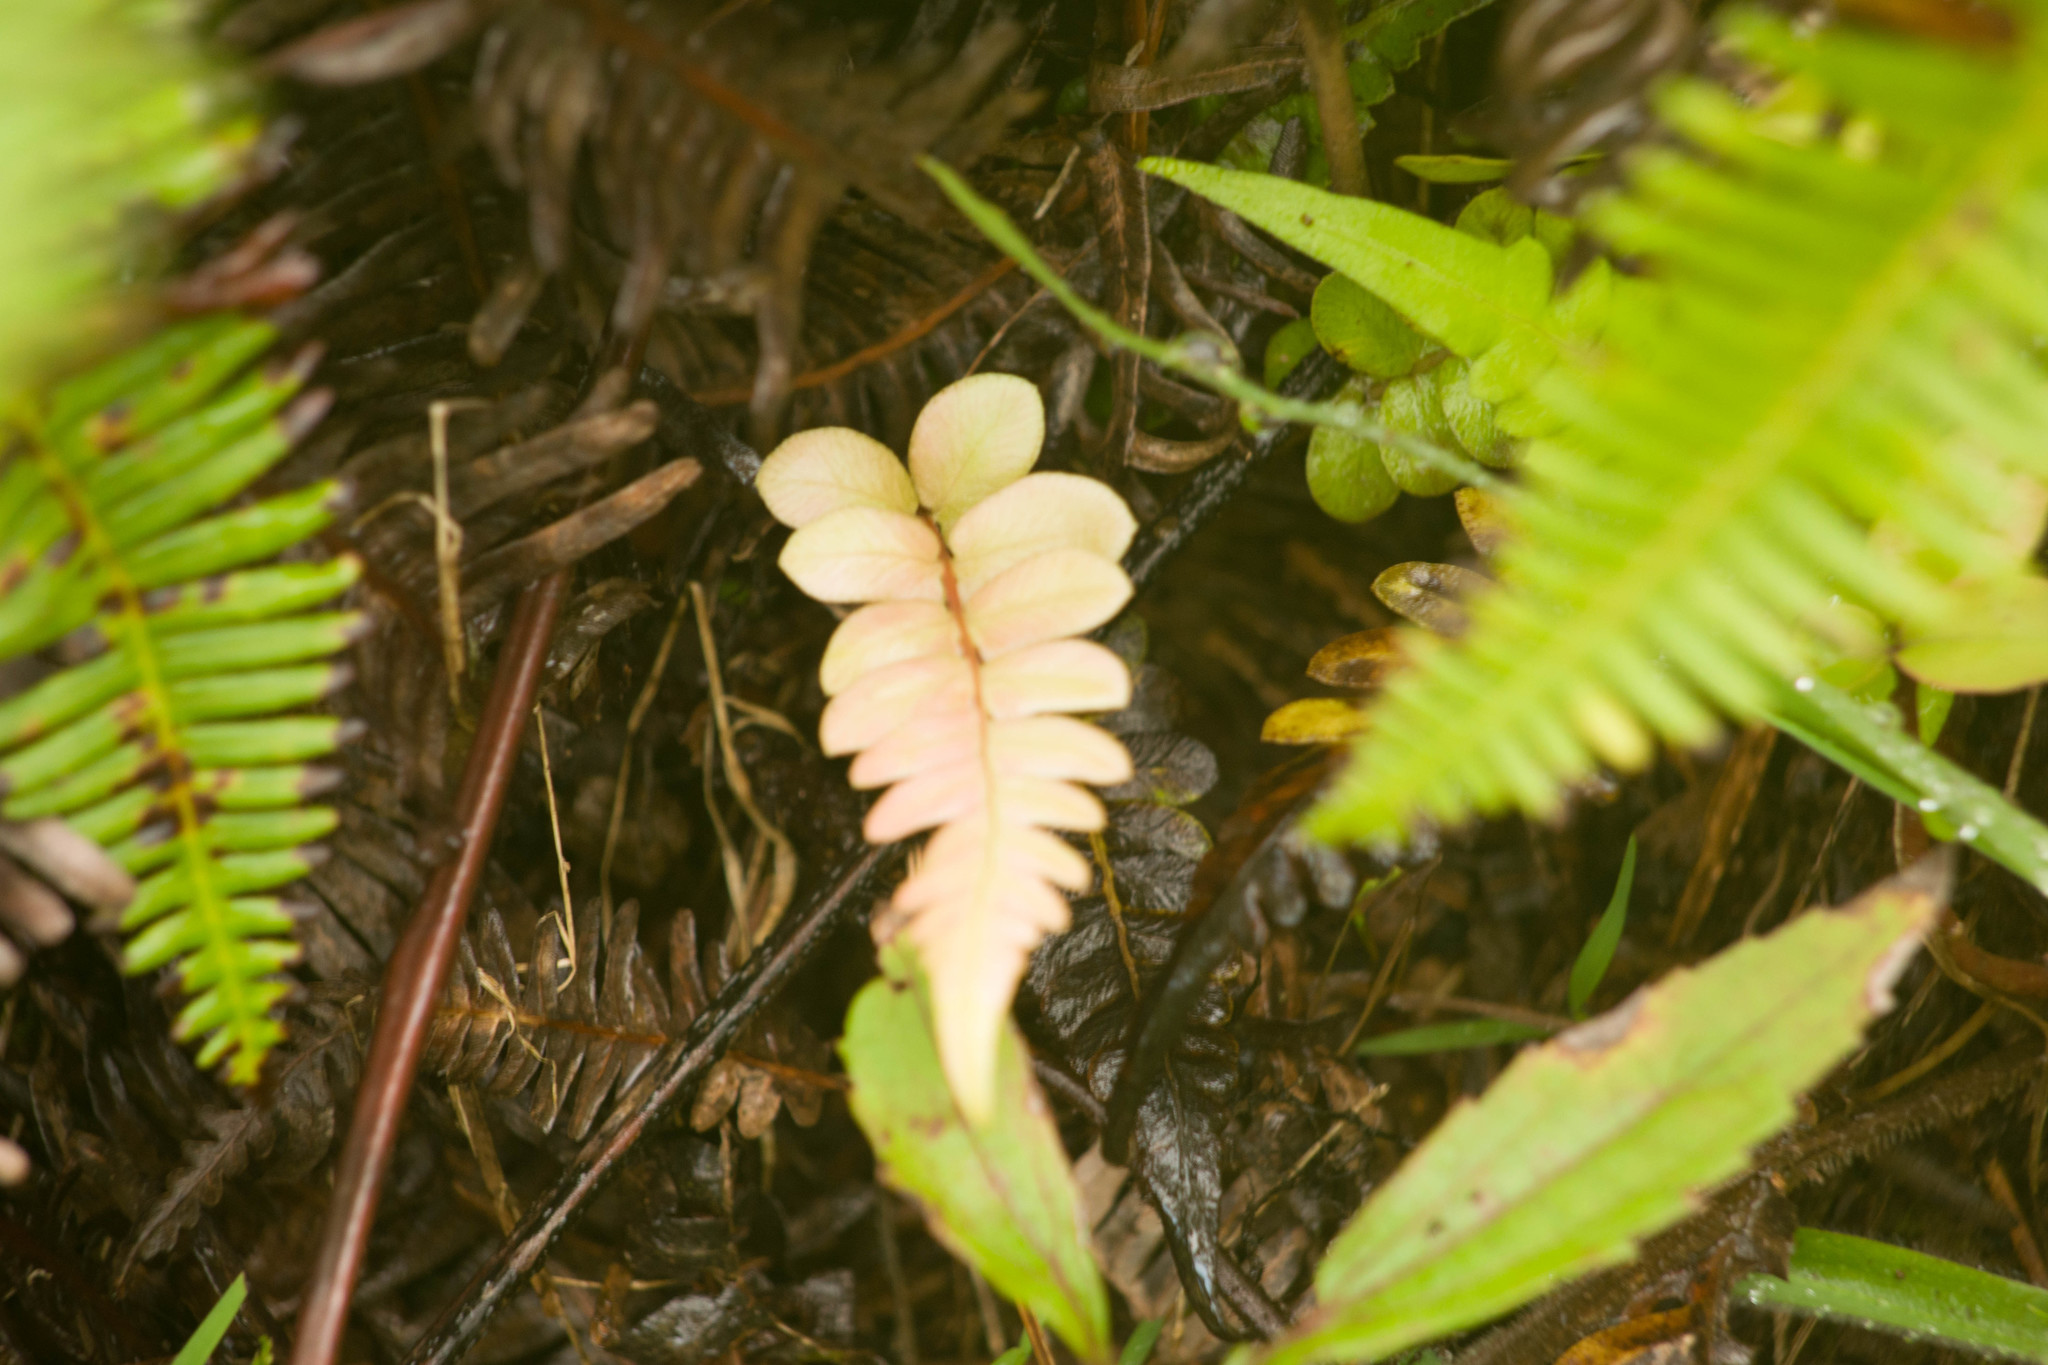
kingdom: Plantae
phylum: Tracheophyta
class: Polypodiopsida
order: Polypodiales
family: Blechnaceae
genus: Blechnum
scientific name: Blechnum appendiculatum
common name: Palm fern
